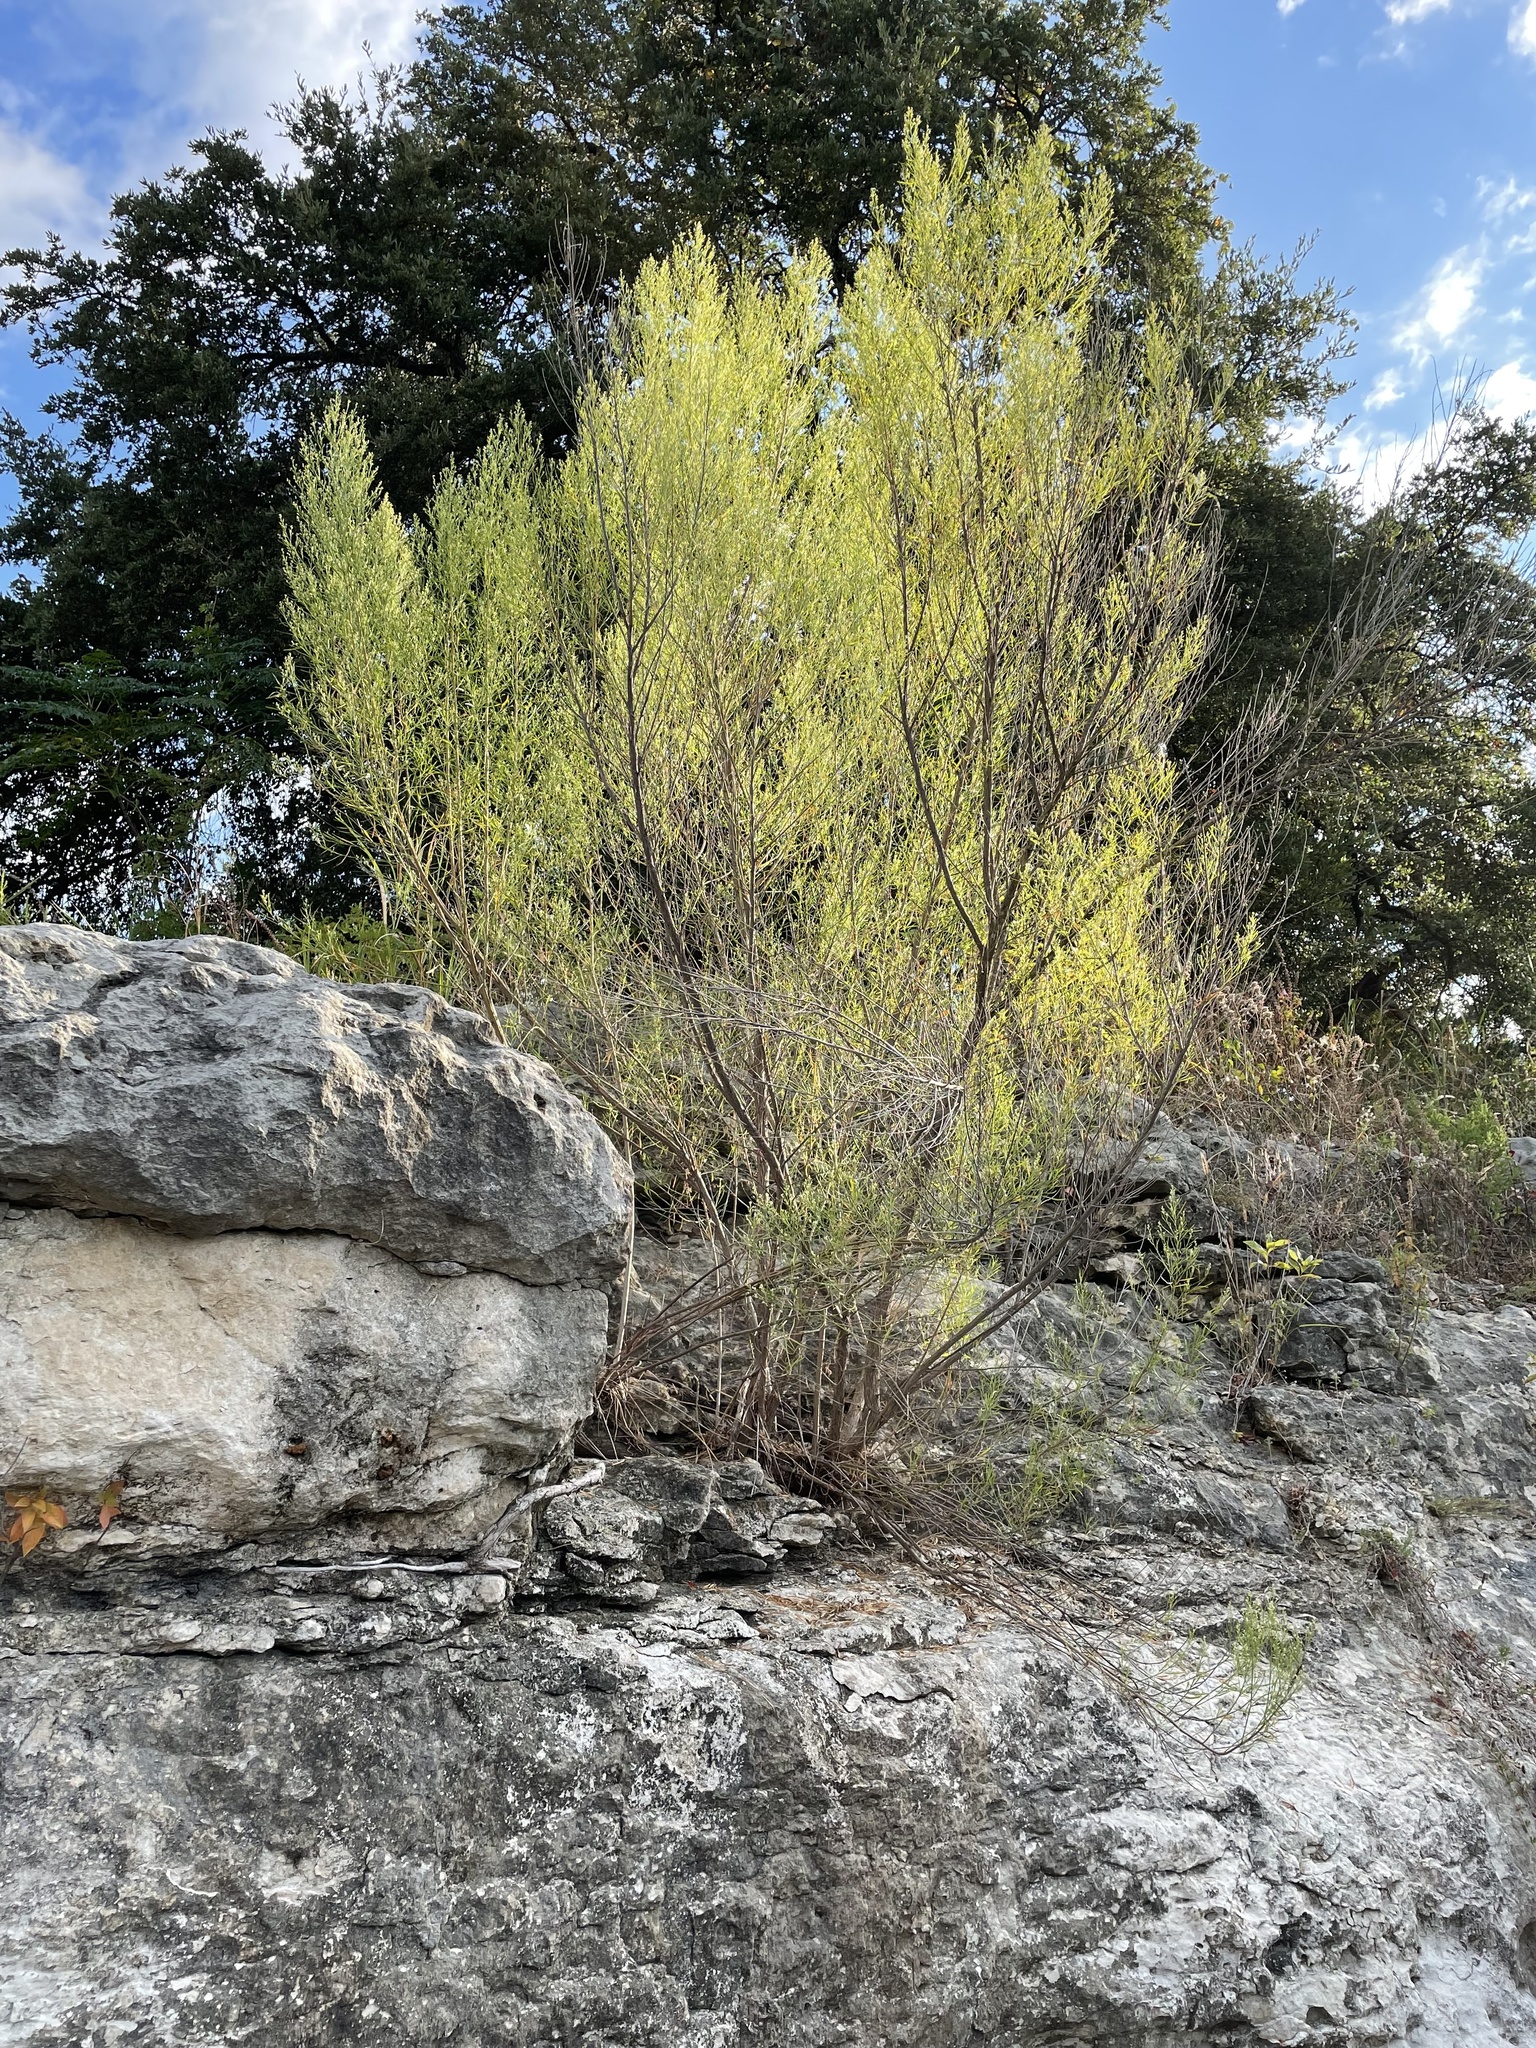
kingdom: Plantae
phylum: Tracheophyta
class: Magnoliopsida
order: Asterales
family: Asteraceae
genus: Baccharis
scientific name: Baccharis neglecta
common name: Roosevelt-weed
